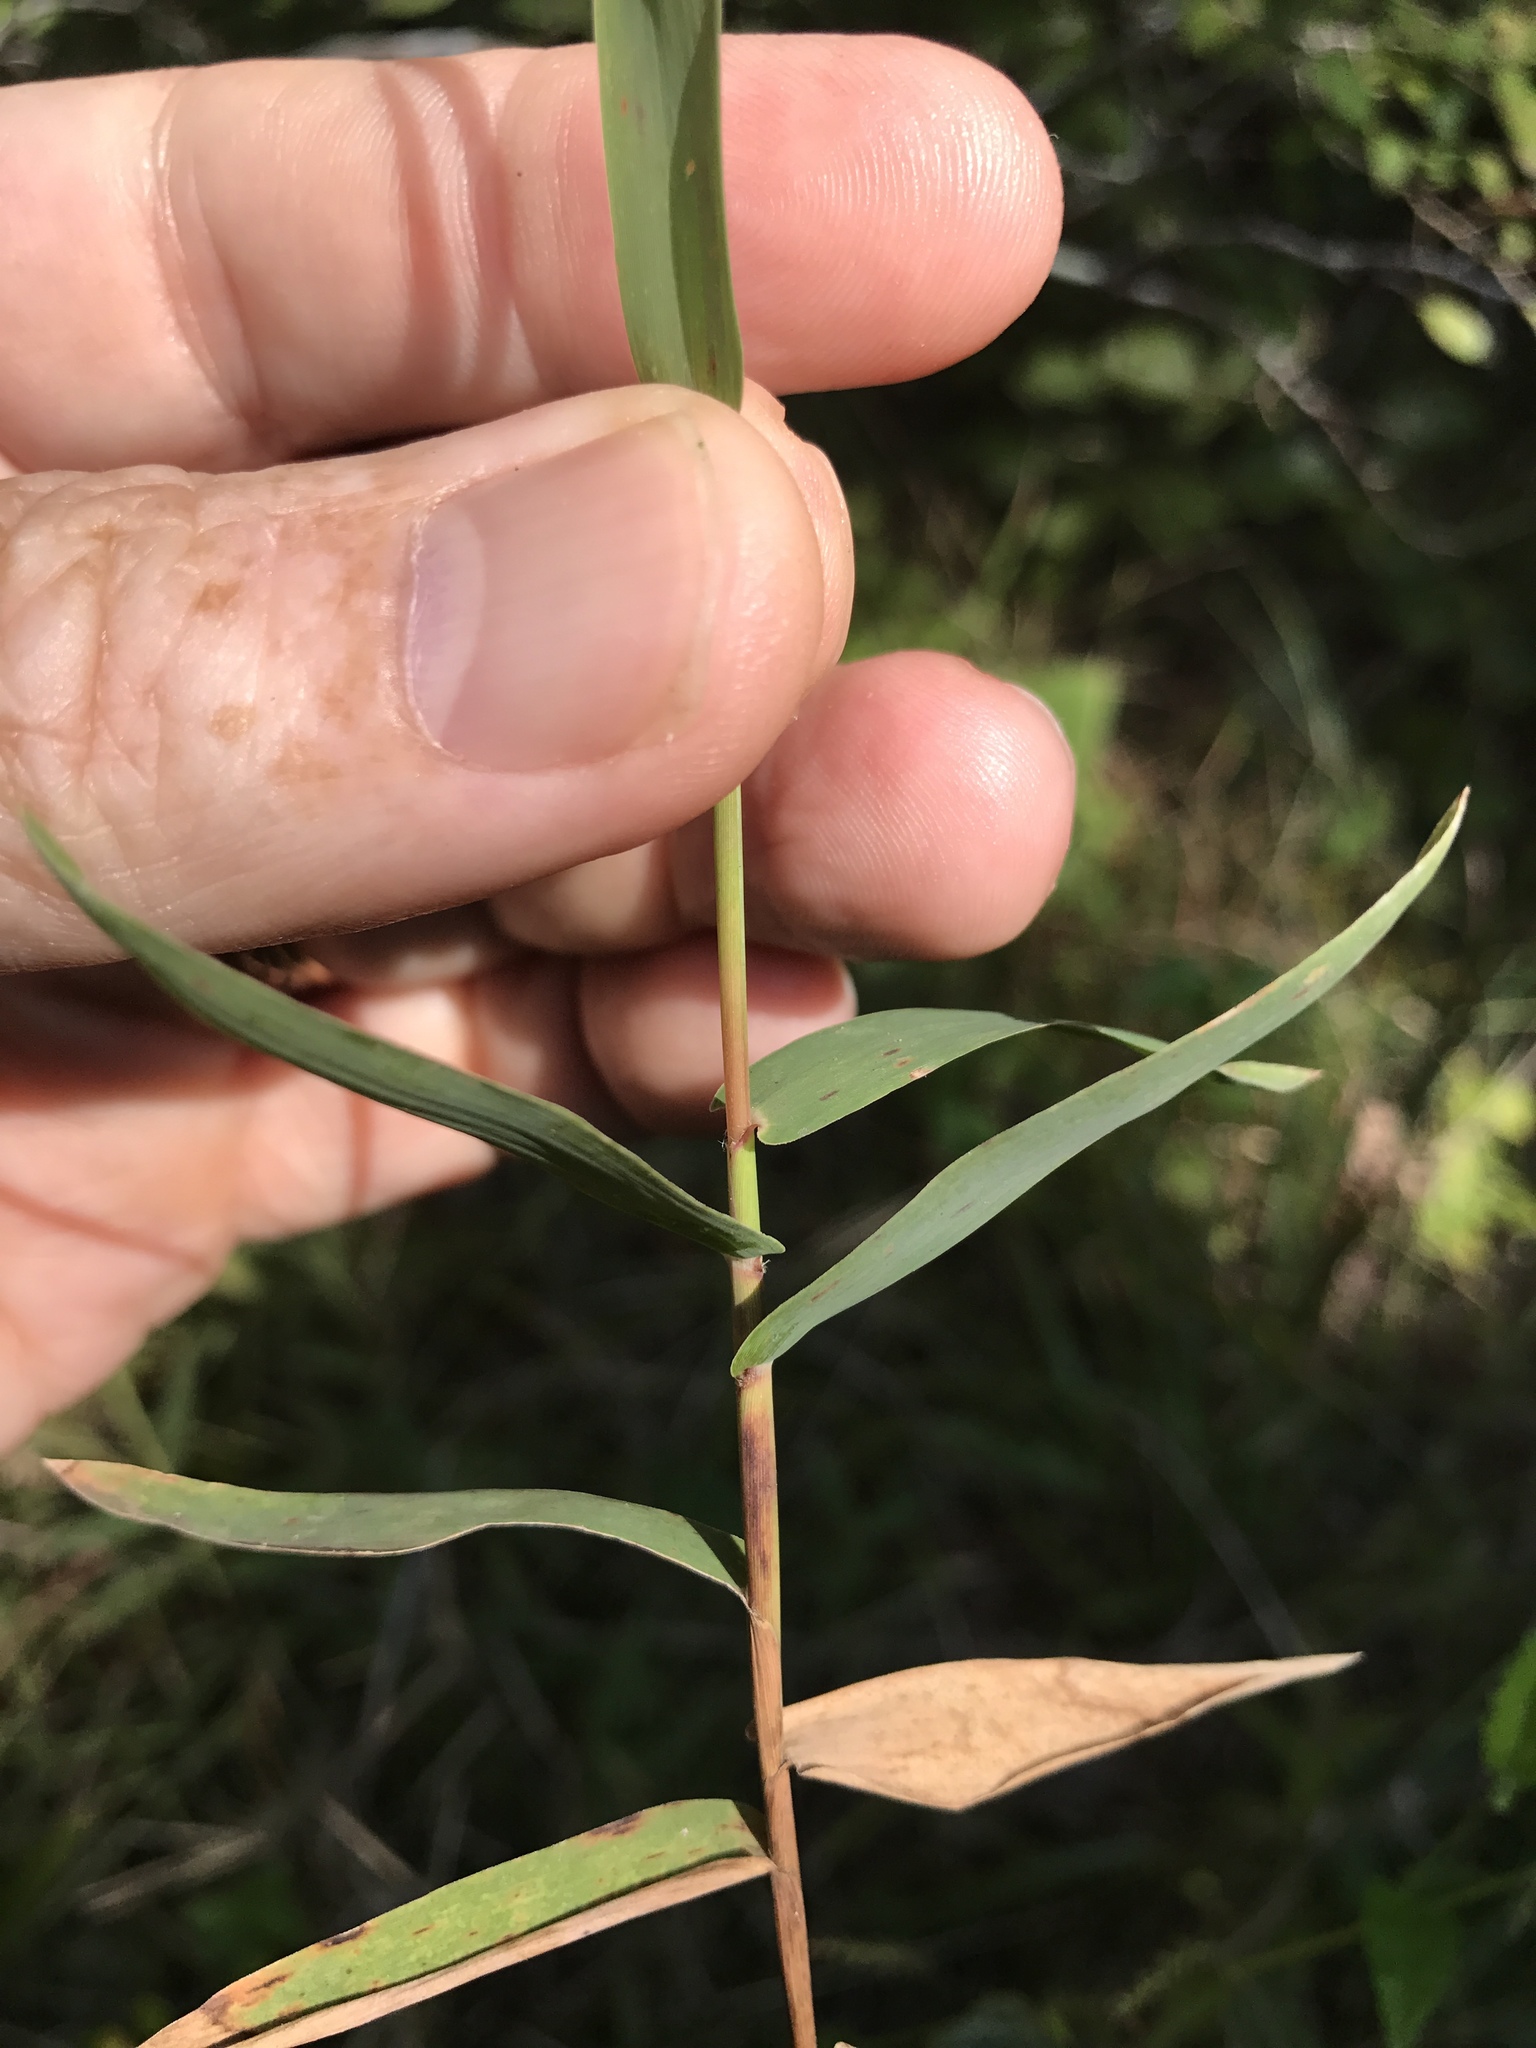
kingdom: Plantae
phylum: Tracheophyta
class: Liliopsida
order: Poales
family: Poaceae
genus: Gymnopogon
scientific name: Gymnopogon brevifolius
